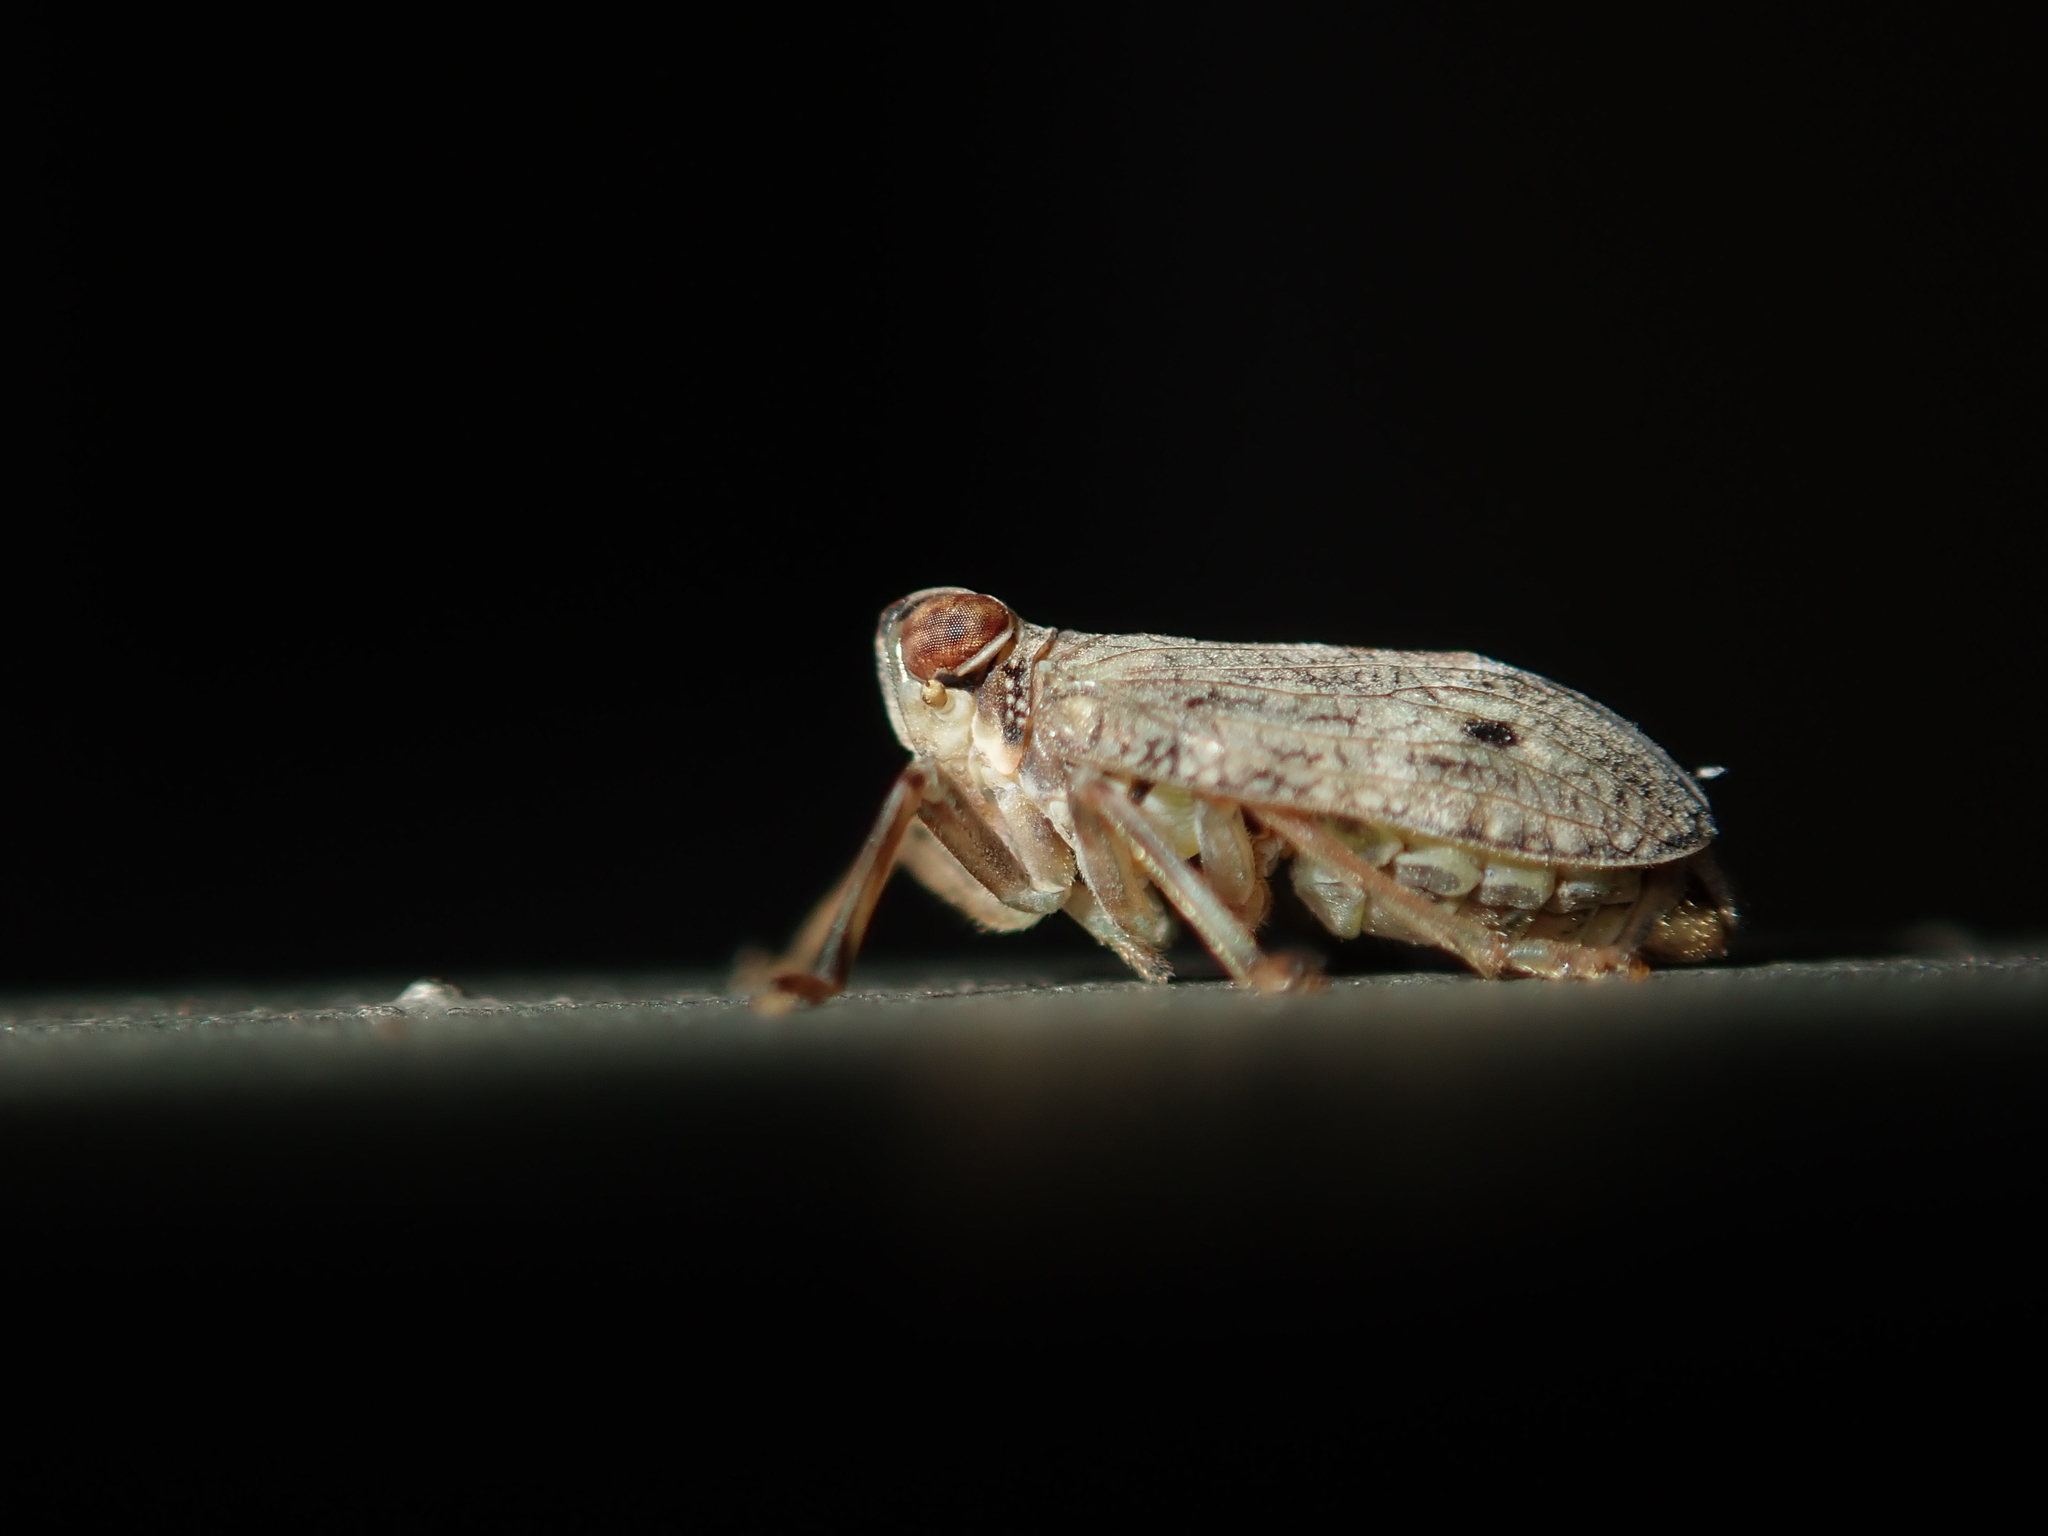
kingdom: Animalia
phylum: Arthropoda
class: Insecta
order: Hemiptera
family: Issidae
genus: Issus
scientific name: Issus coleoptratus
